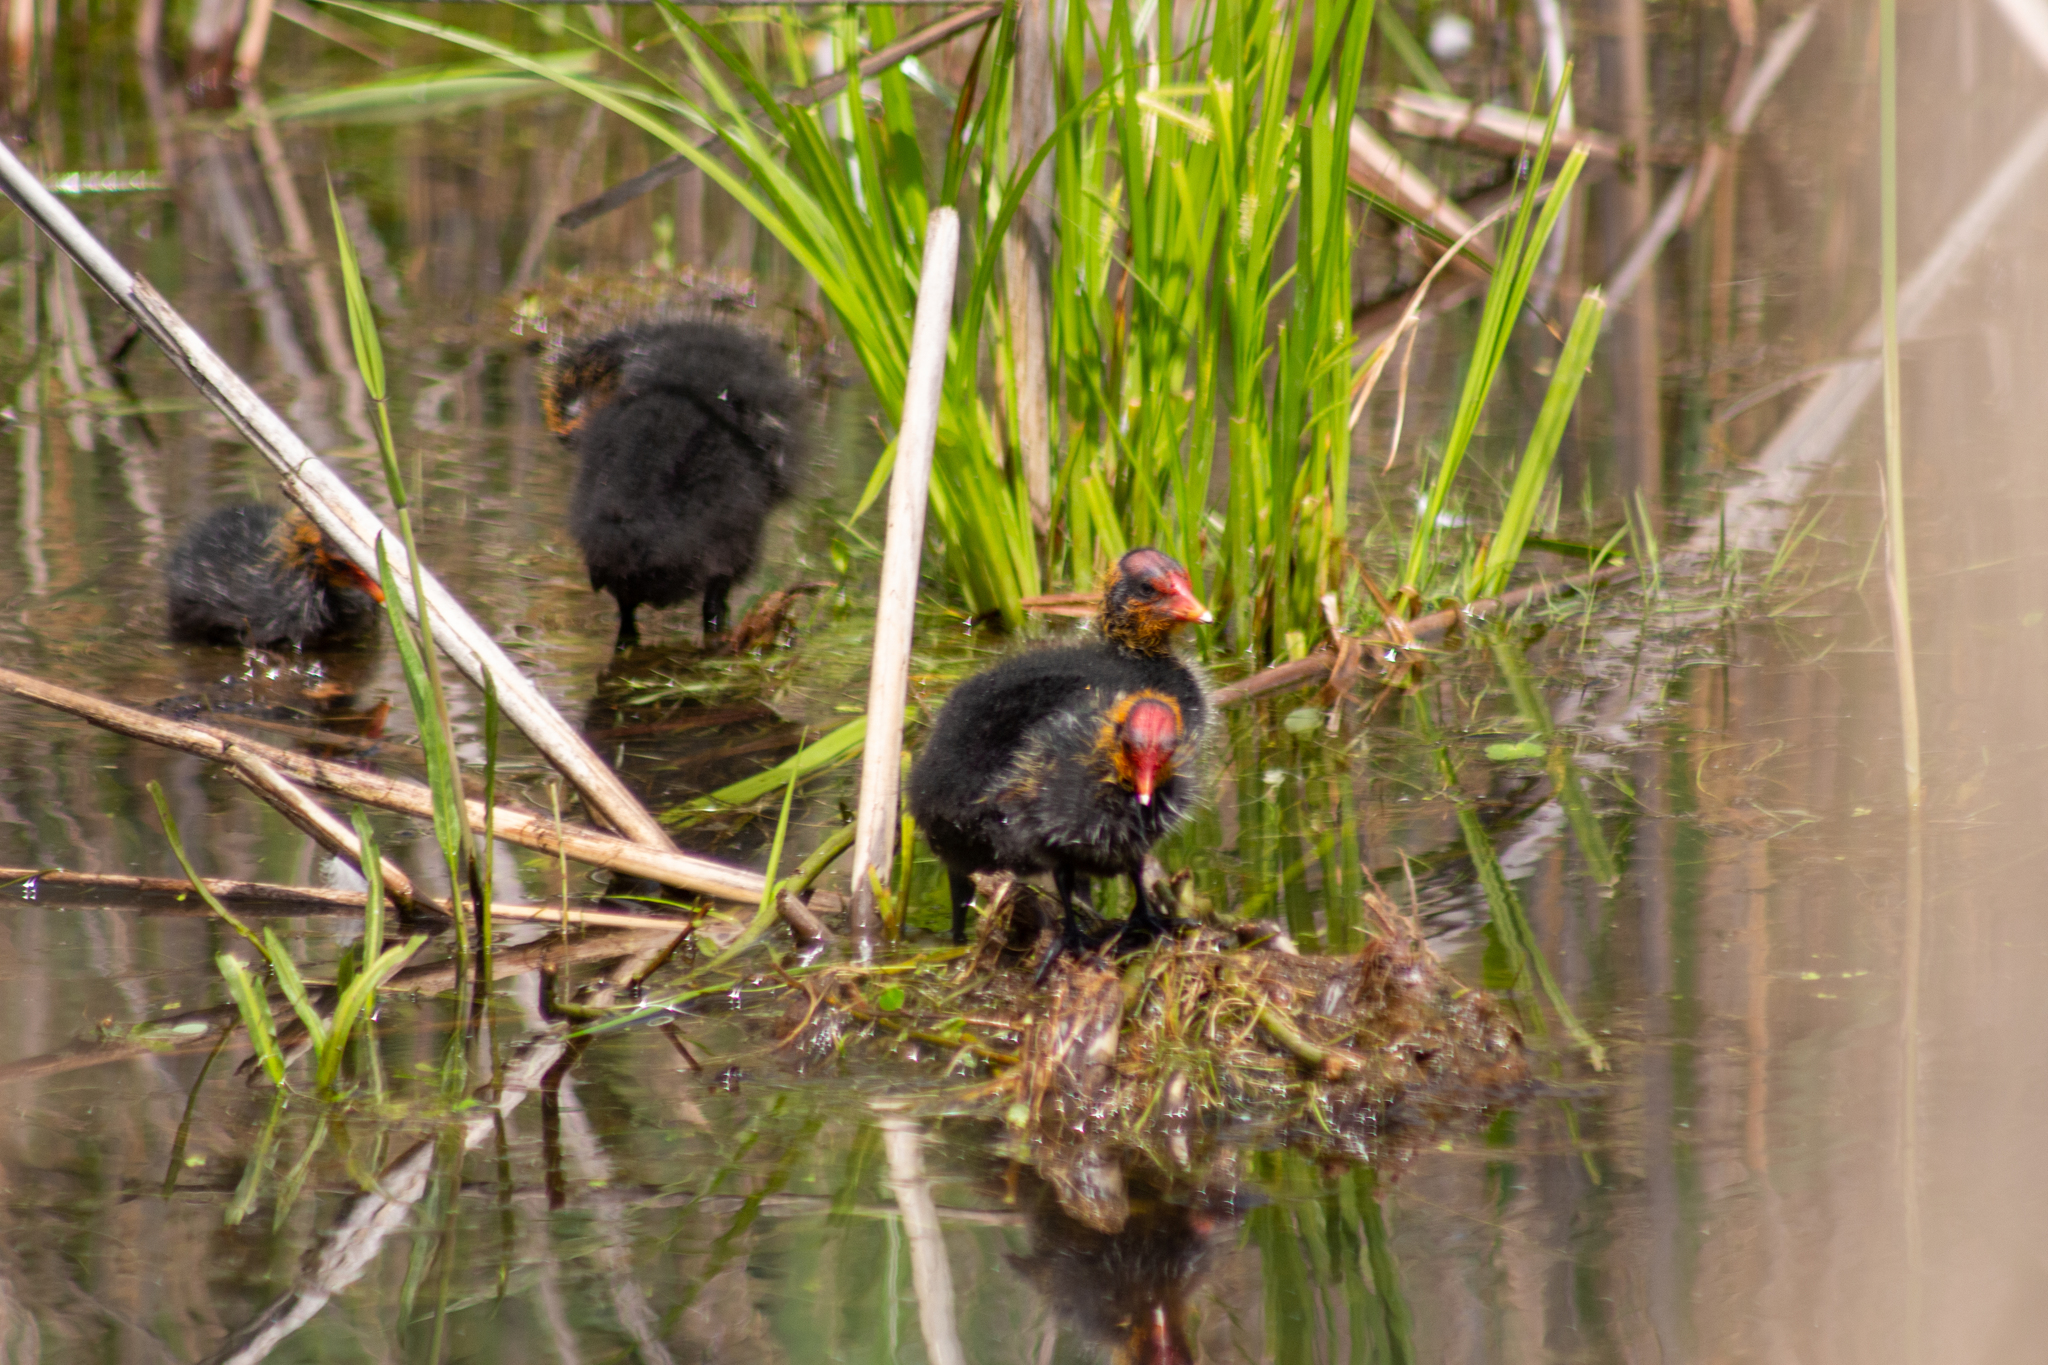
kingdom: Animalia
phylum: Chordata
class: Aves
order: Gruiformes
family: Rallidae
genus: Fulica
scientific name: Fulica atra
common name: Eurasian coot
